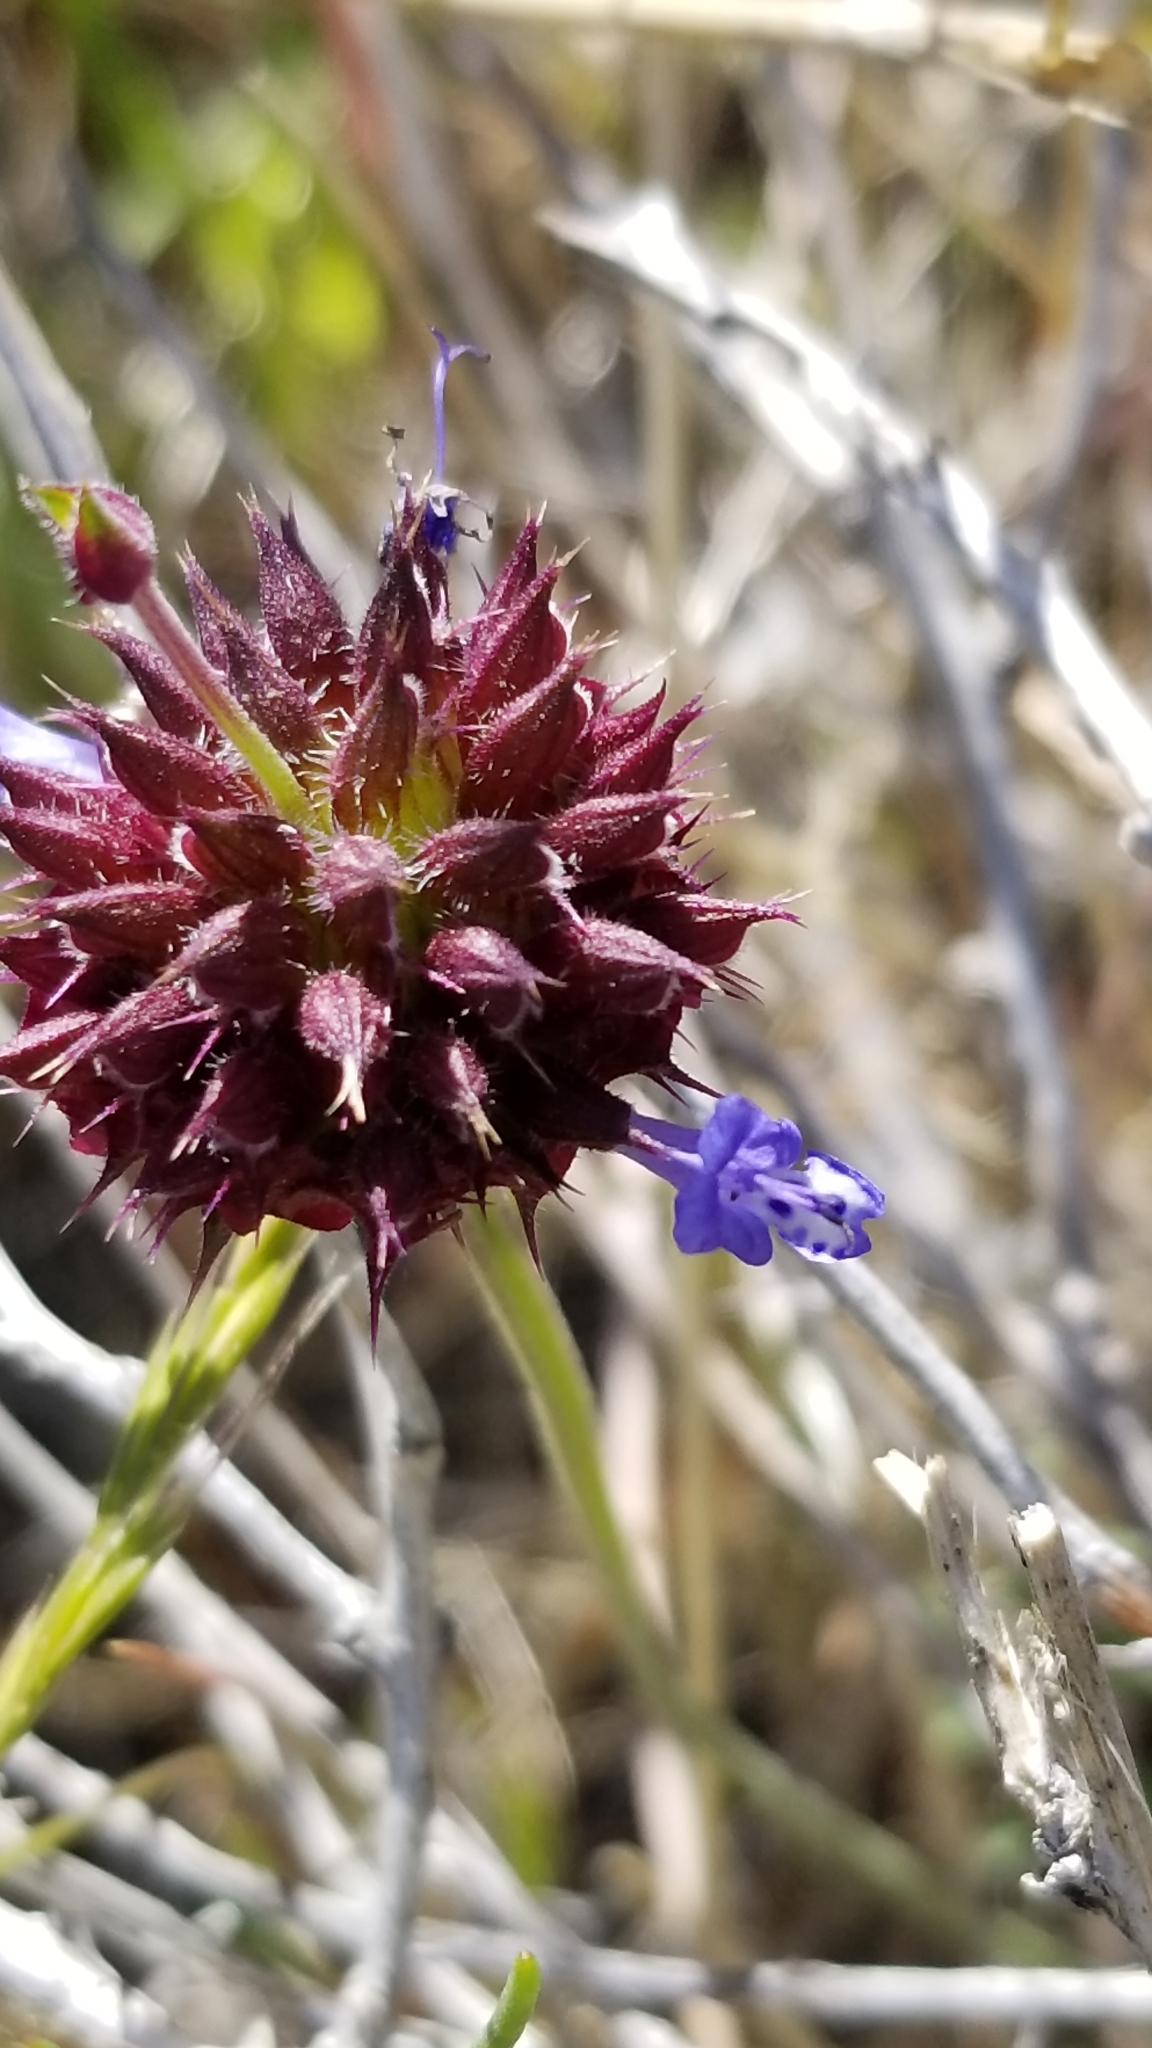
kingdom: Plantae
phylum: Tracheophyta
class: Magnoliopsida
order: Lamiales
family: Lamiaceae
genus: Salvia
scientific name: Salvia columbariae
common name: Chia
